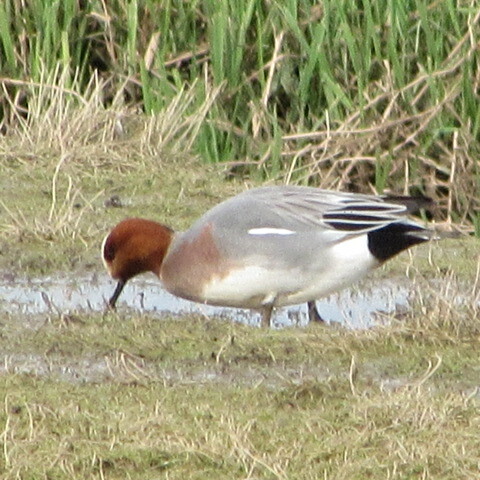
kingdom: Animalia
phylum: Chordata
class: Aves
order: Anseriformes
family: Anatidae
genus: Mareca
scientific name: Mareca penelope
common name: Eurasian wigeon
